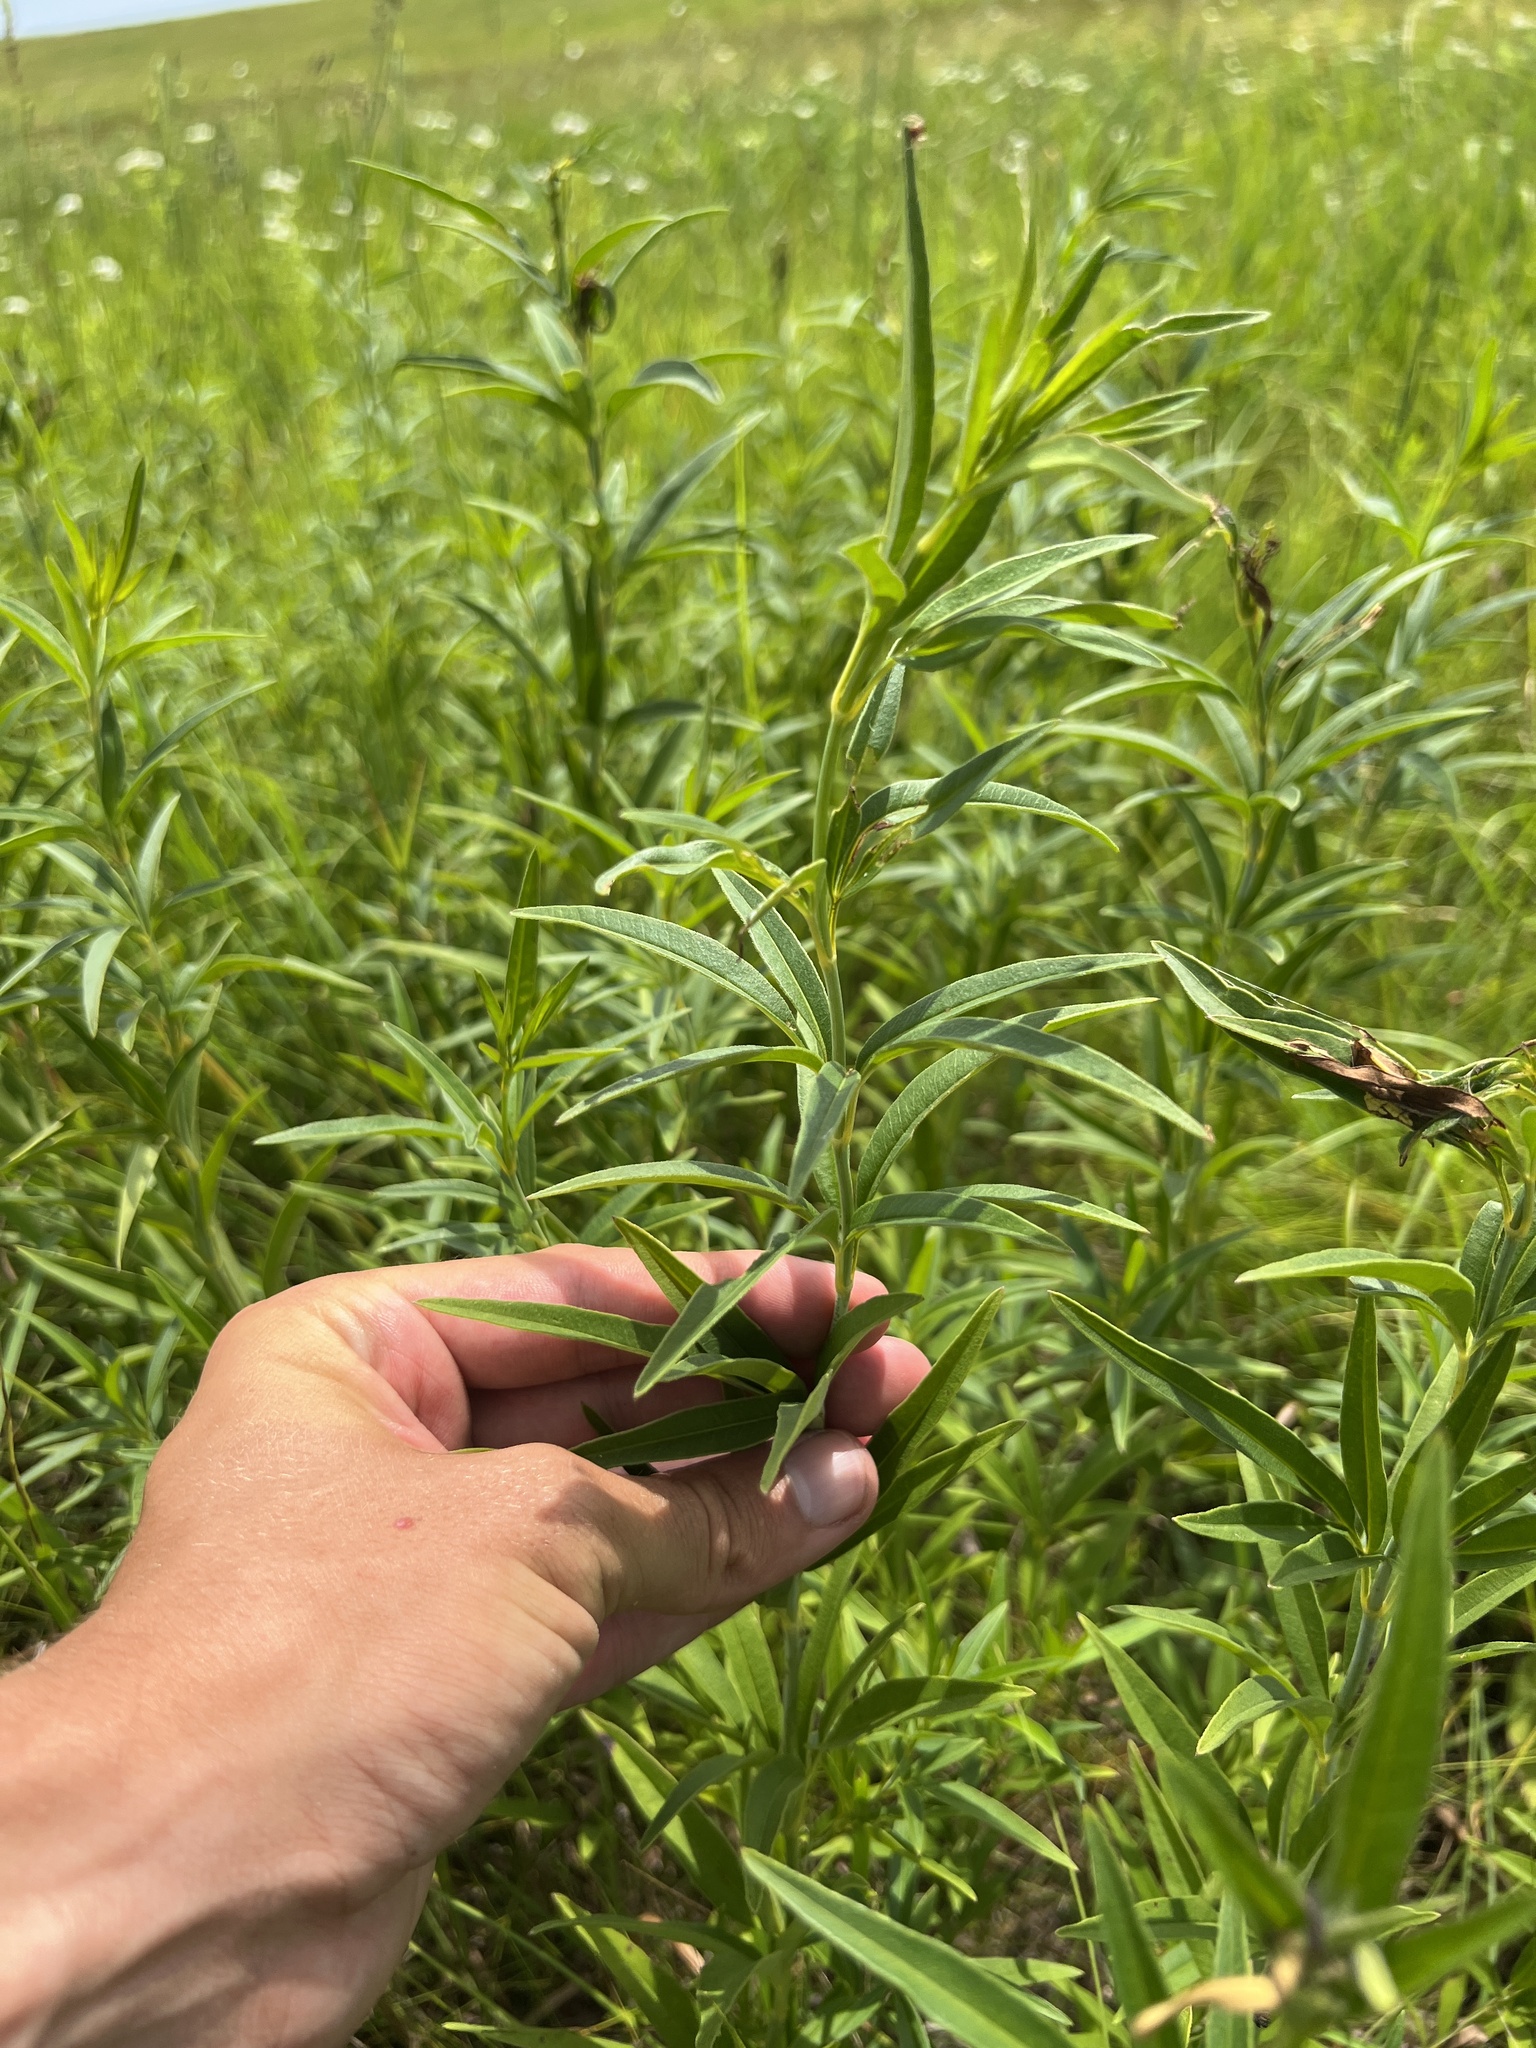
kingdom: Plantae
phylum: Tracheophyta
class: Magnoliopsida
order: Asterales
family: Asteraceae
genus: Coreopsis
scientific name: Coreopsis tripteris
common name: Tall coreopsis
